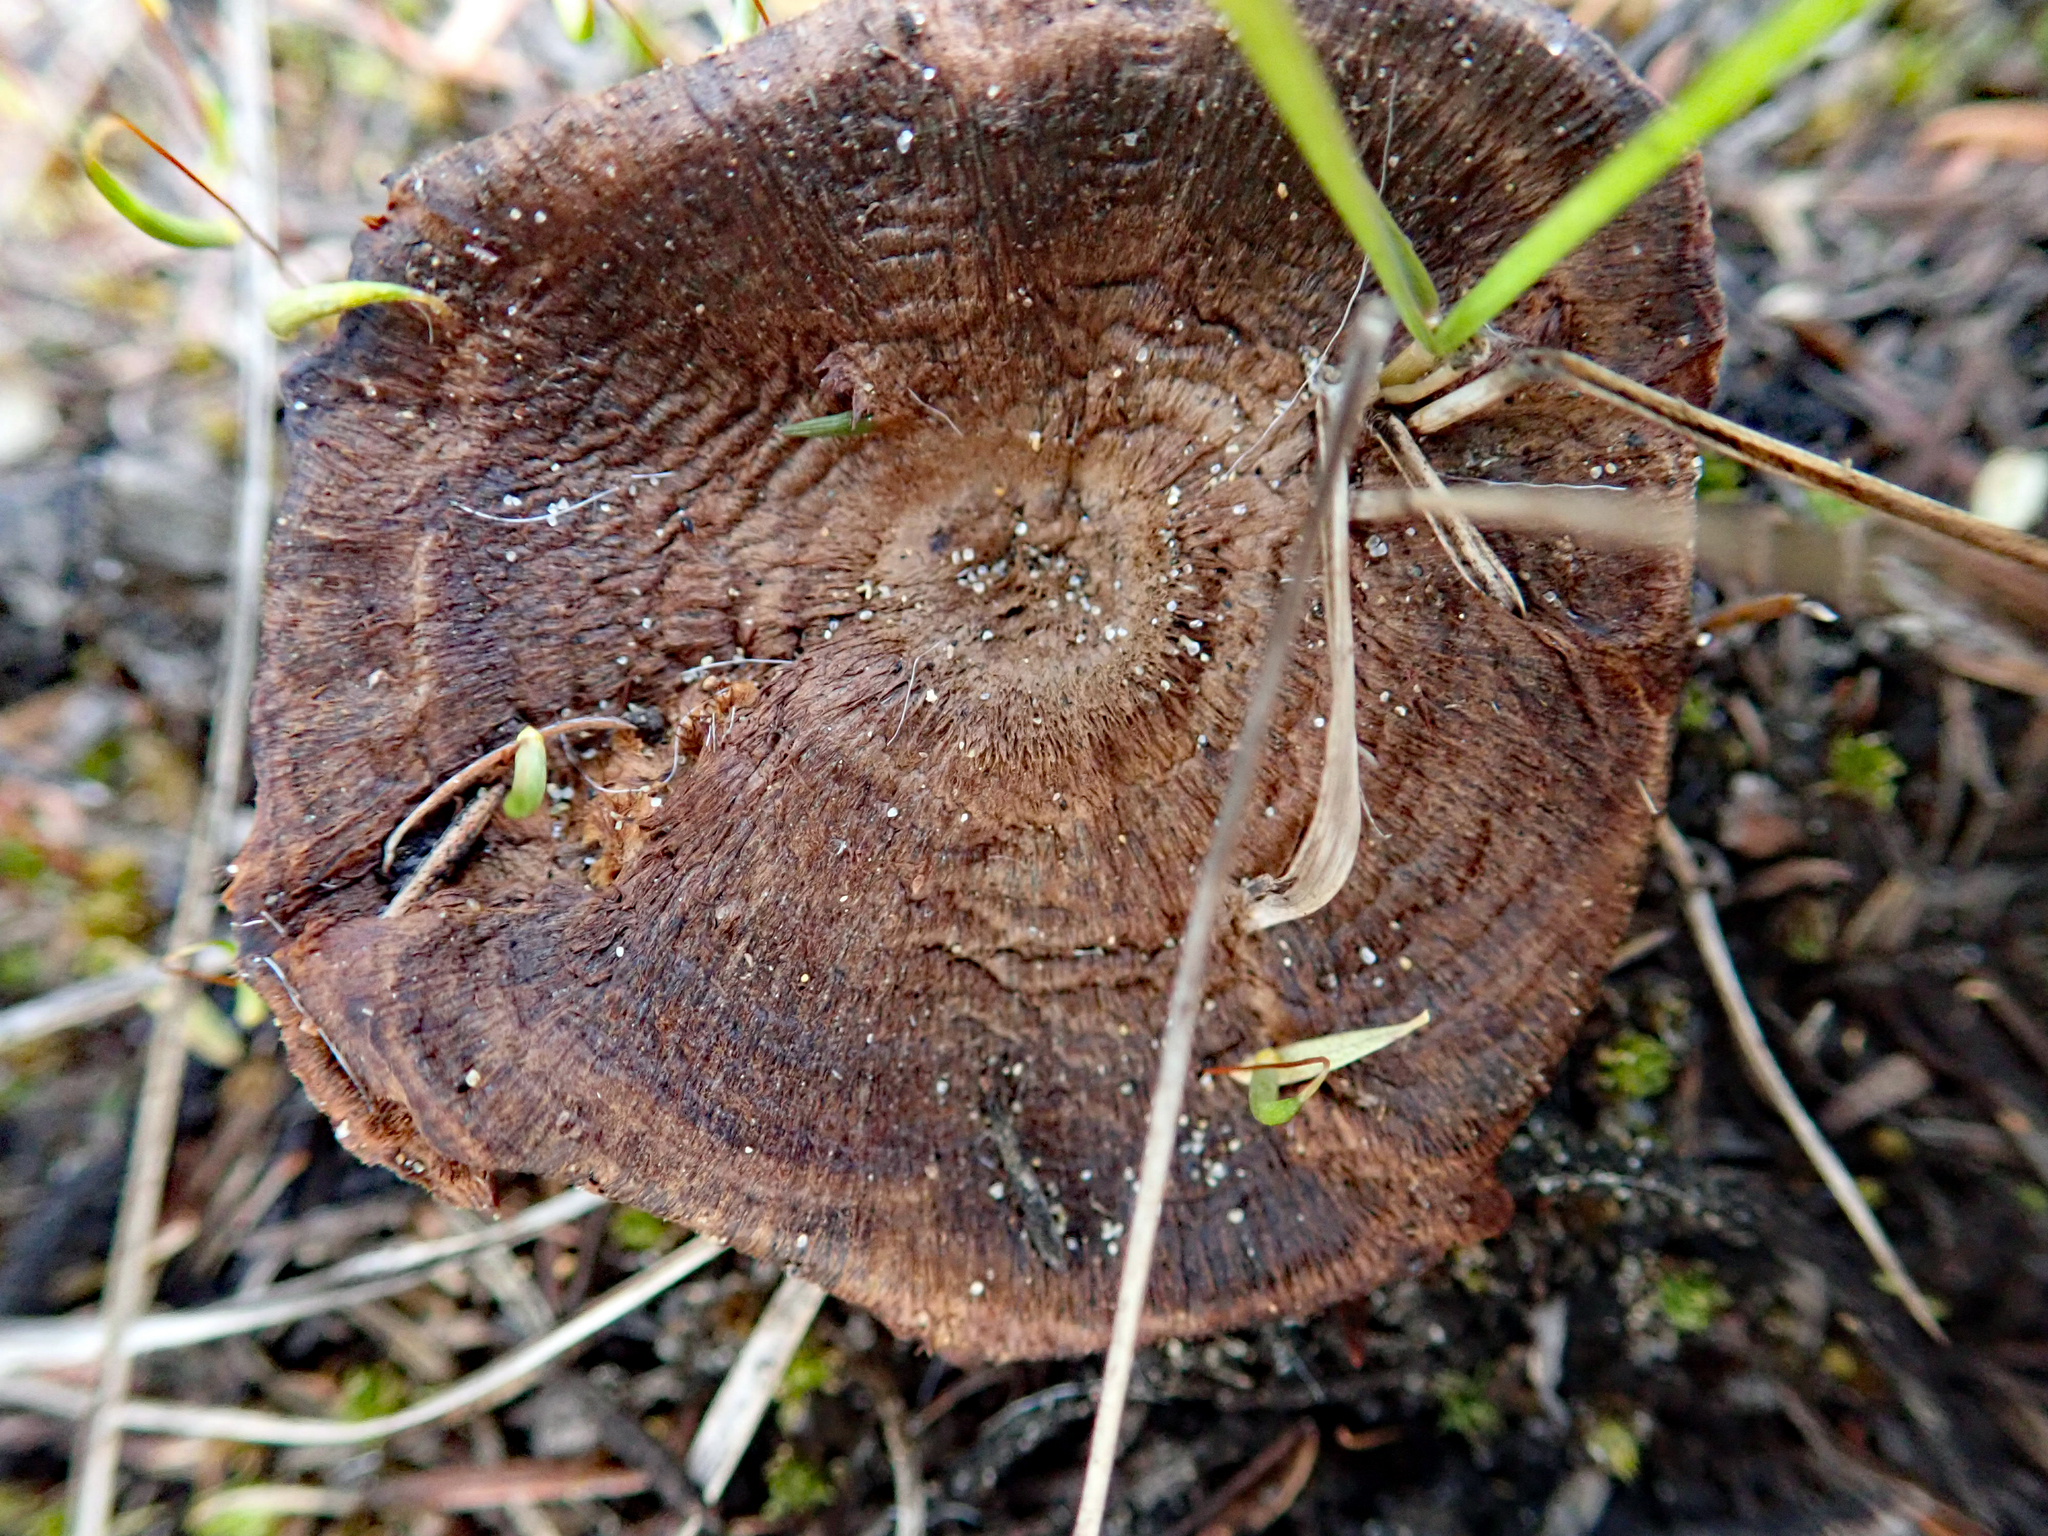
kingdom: Fungi
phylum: Basidiomycota
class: Agaricomycetes
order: Hymenochaetales
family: Hymenochaetaceae
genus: Coltricia
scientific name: Coltricia cinnamomea
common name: Shiny cinnamon polypore
